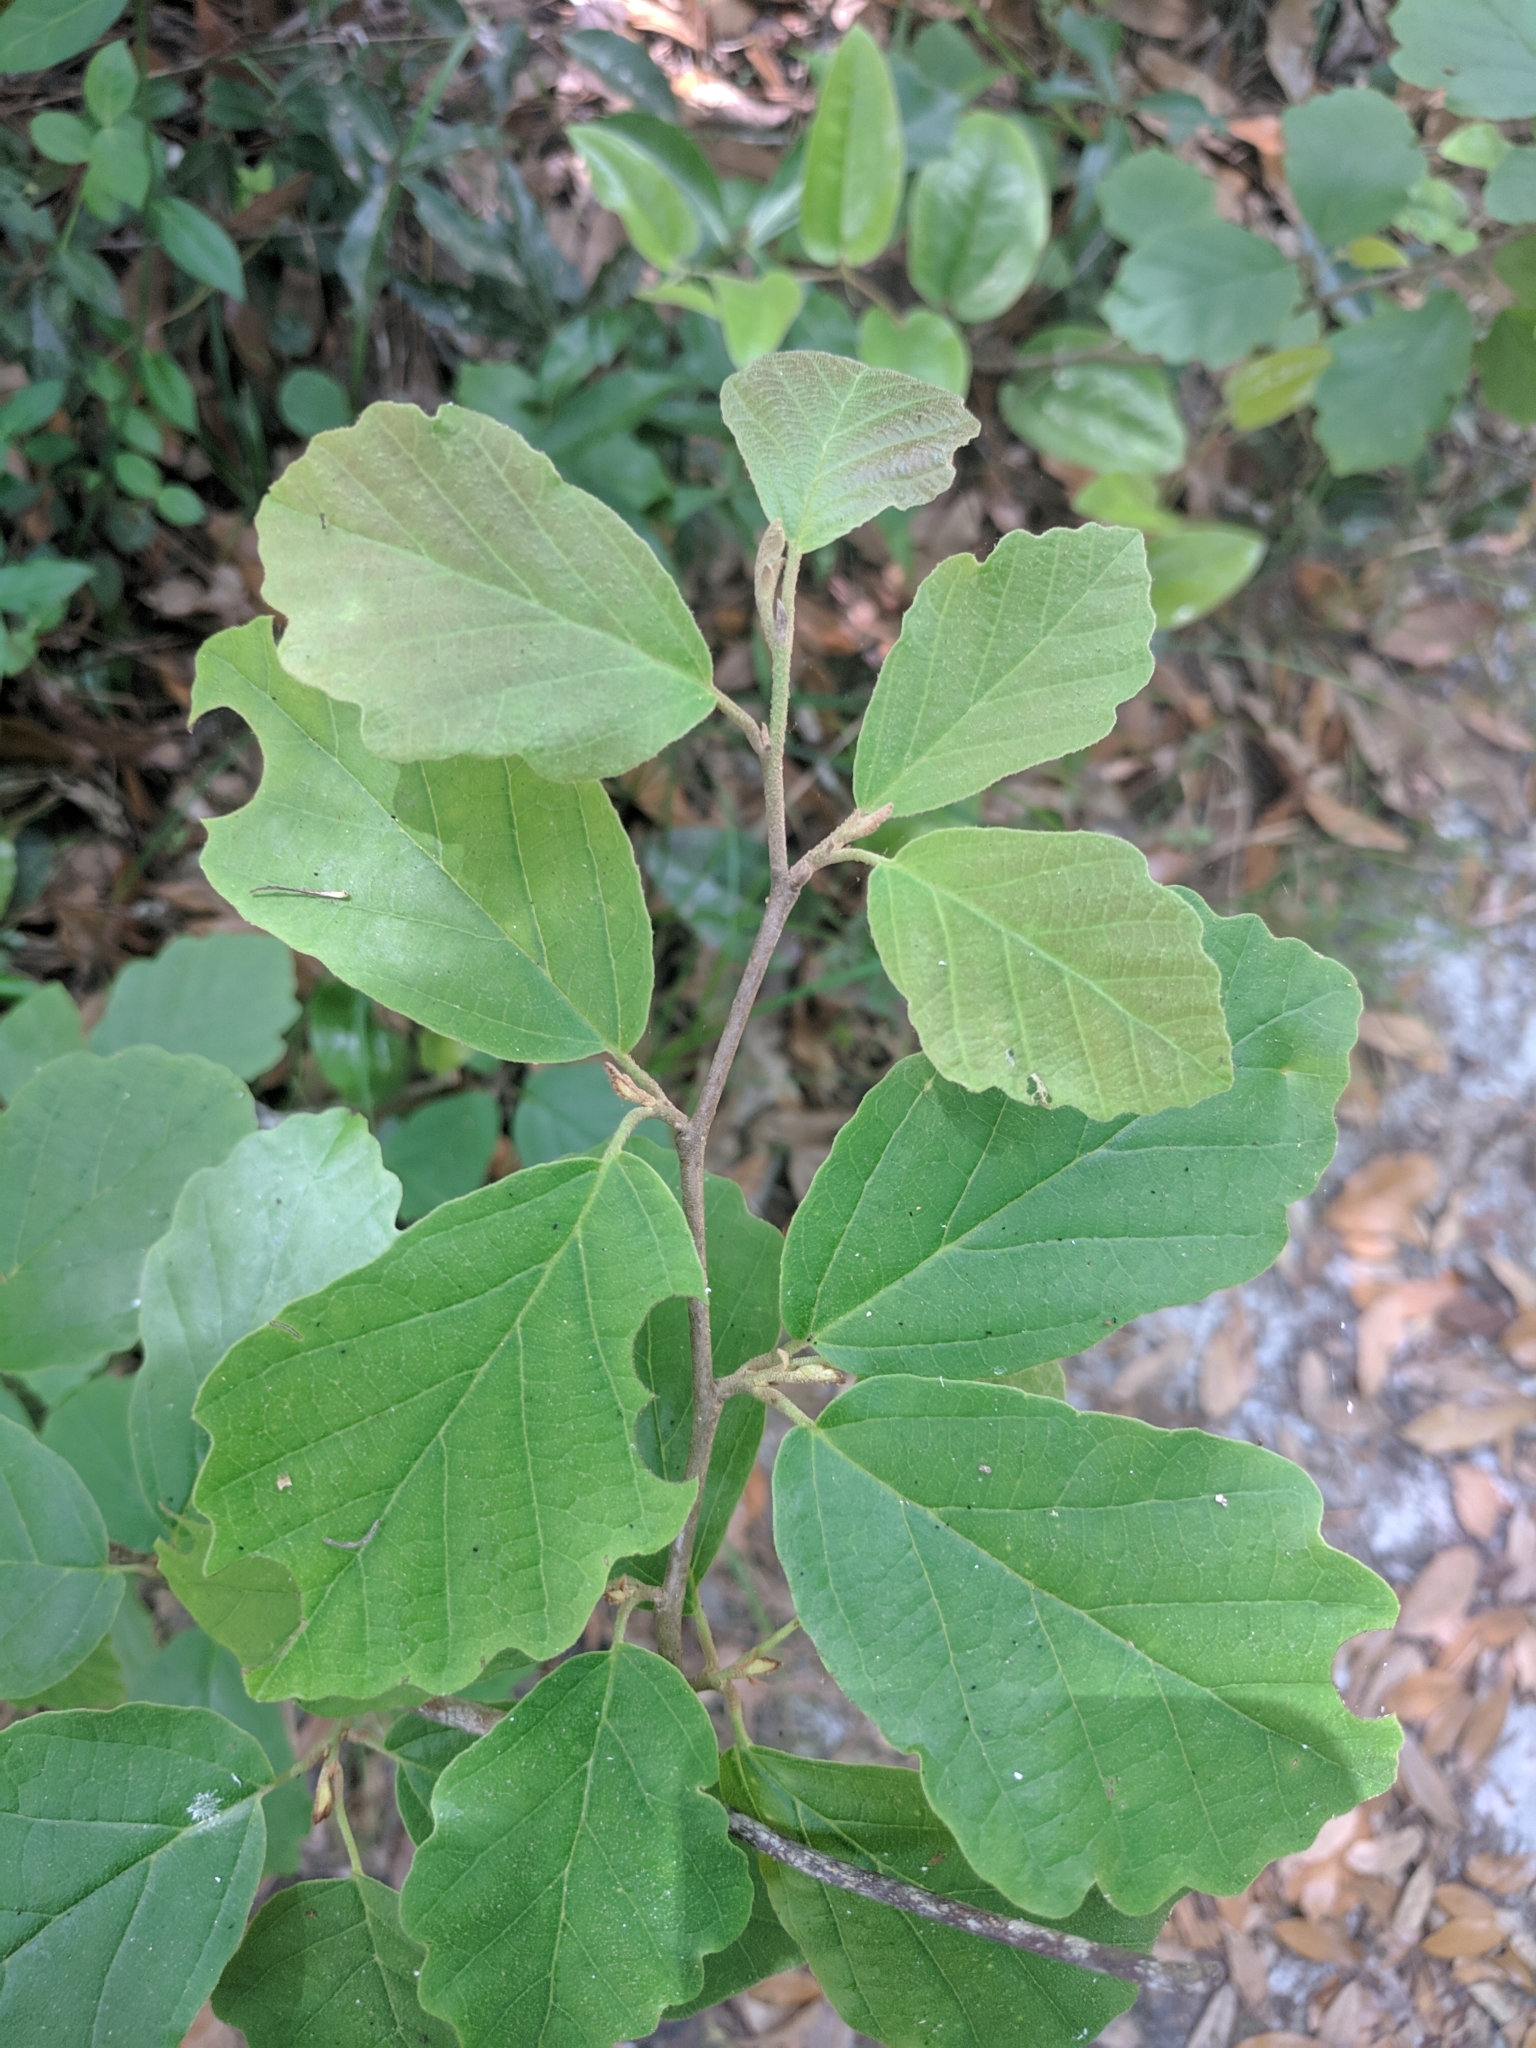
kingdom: Plantae
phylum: Tracheophyta
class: Magnoliopsida
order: Saxifragales
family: Hamamelidaceae
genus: Hamamelis
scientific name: Hamamelis virginiana
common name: Witch-hazel
